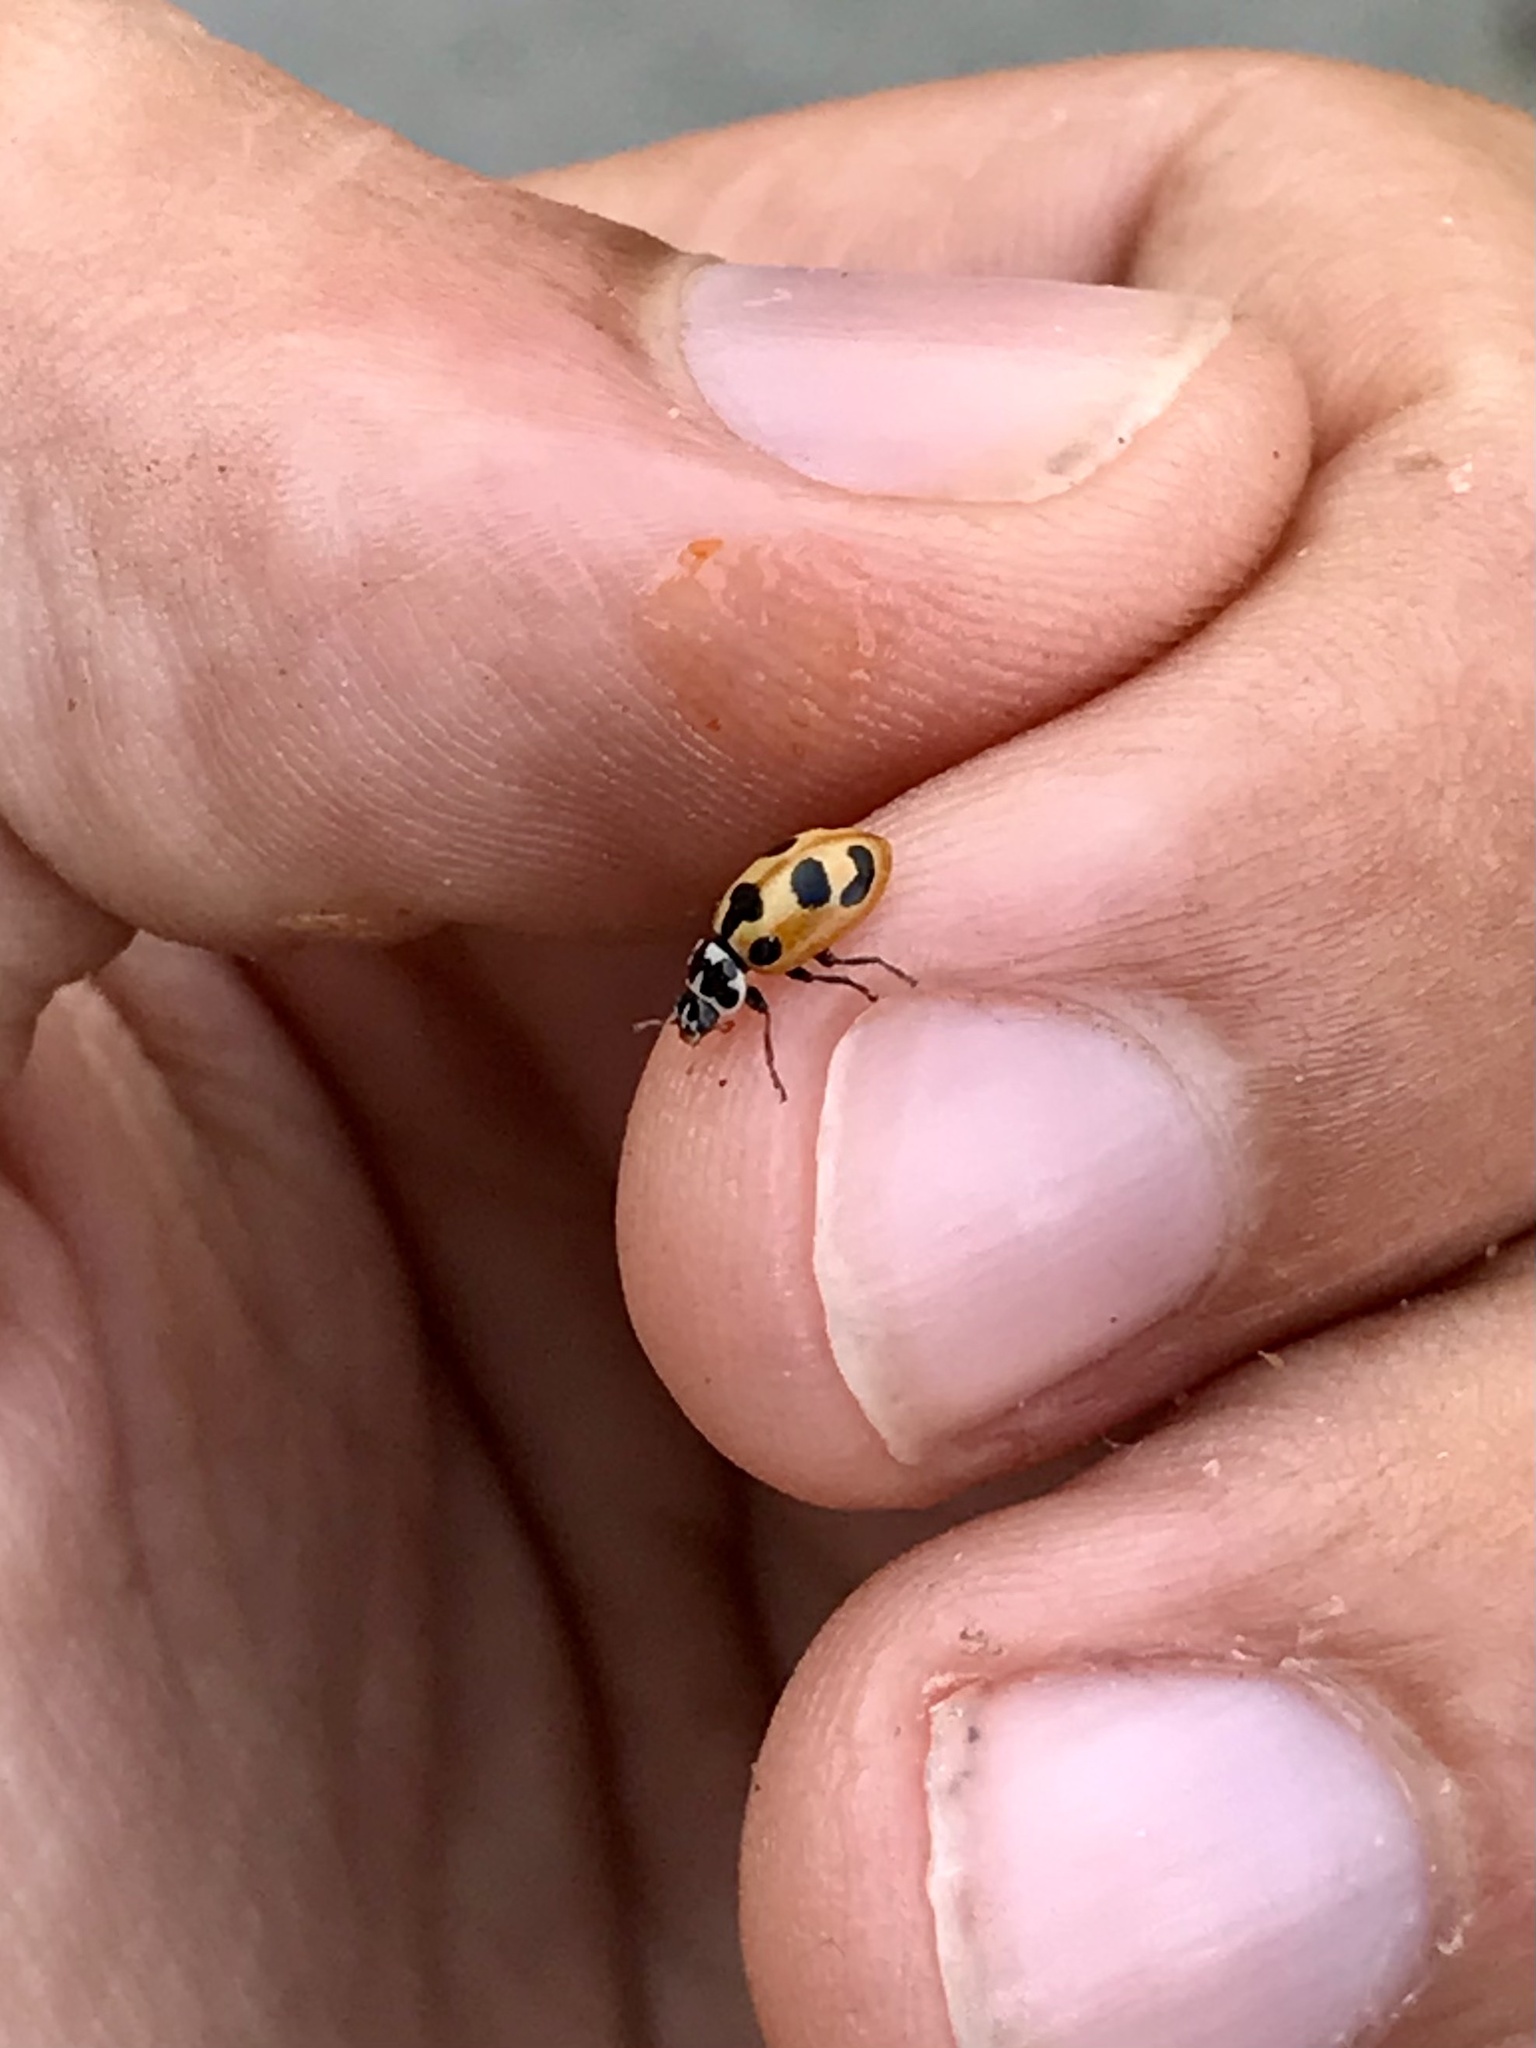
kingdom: Animalia
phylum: Arthropoda
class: Insecta
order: Coleoptera
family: Coccinellidae
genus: Hippodamia
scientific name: Hippodamia parenthesis
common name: Parenthesis lady beetle
